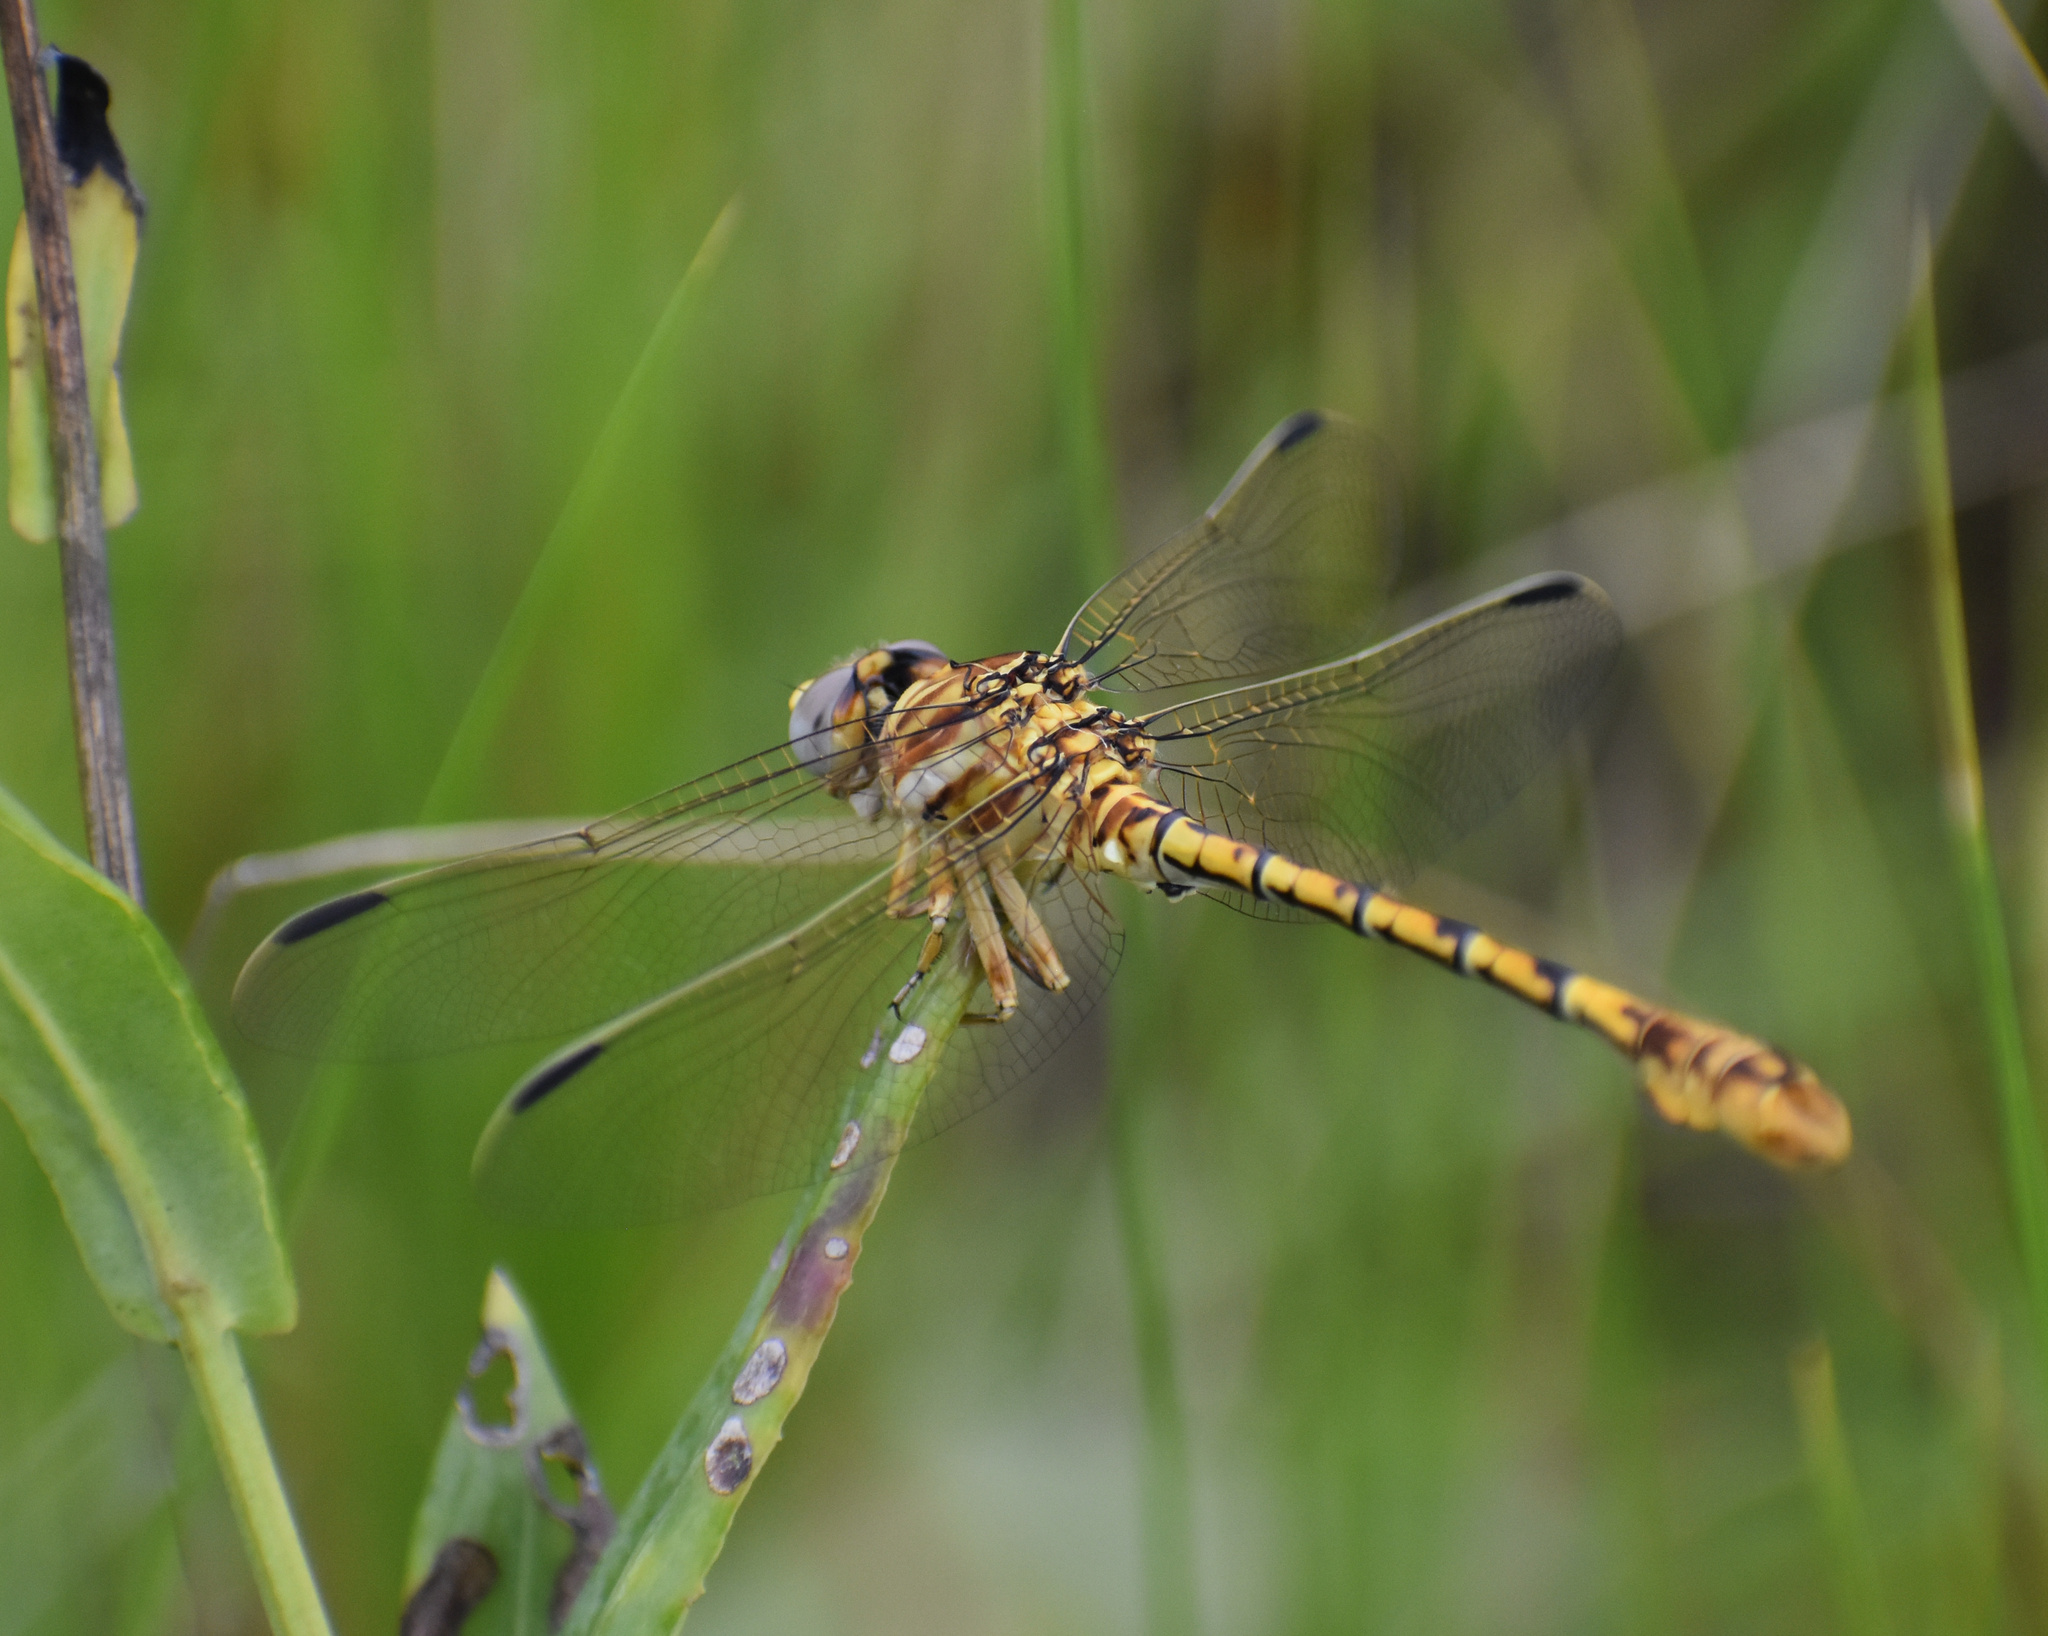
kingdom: Animalia
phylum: Arthropoda
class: Insecta
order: Odonata
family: Gomphidae
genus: Crenigomphus
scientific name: Crenigomphus hartmanni
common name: Clubbed talontail
